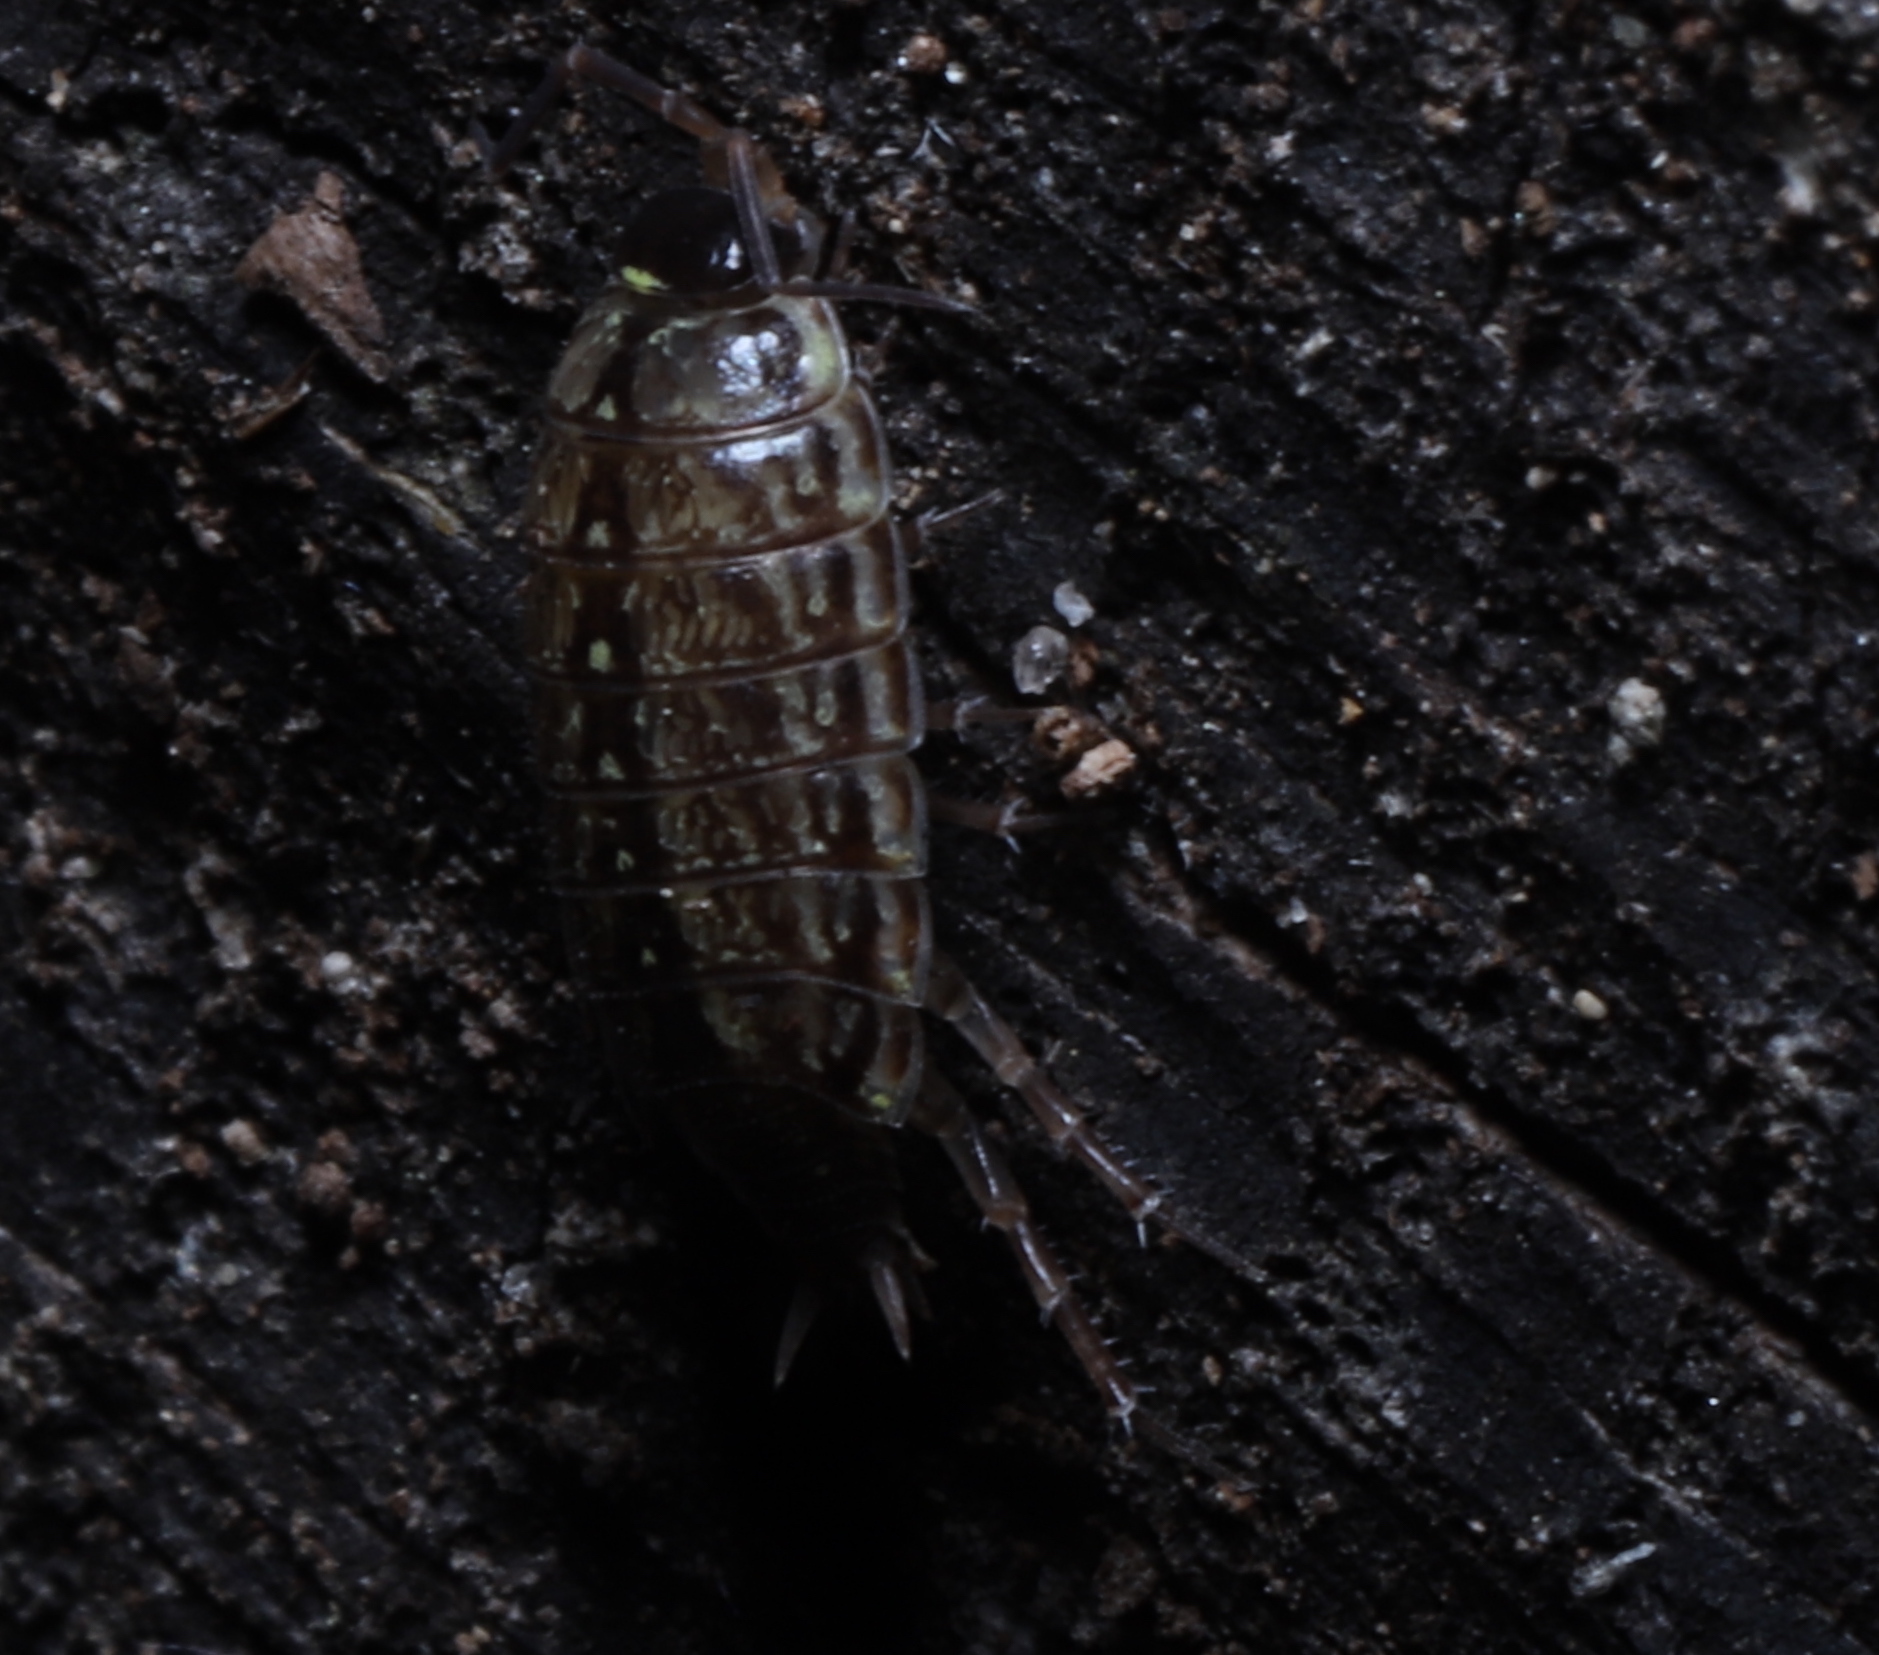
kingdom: Animalia
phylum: Arthropoda
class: Malacostraca
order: Isopoda
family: Philosciidae
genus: Philoscia
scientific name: Philoscia muscorum
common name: Common striped woodlouse
